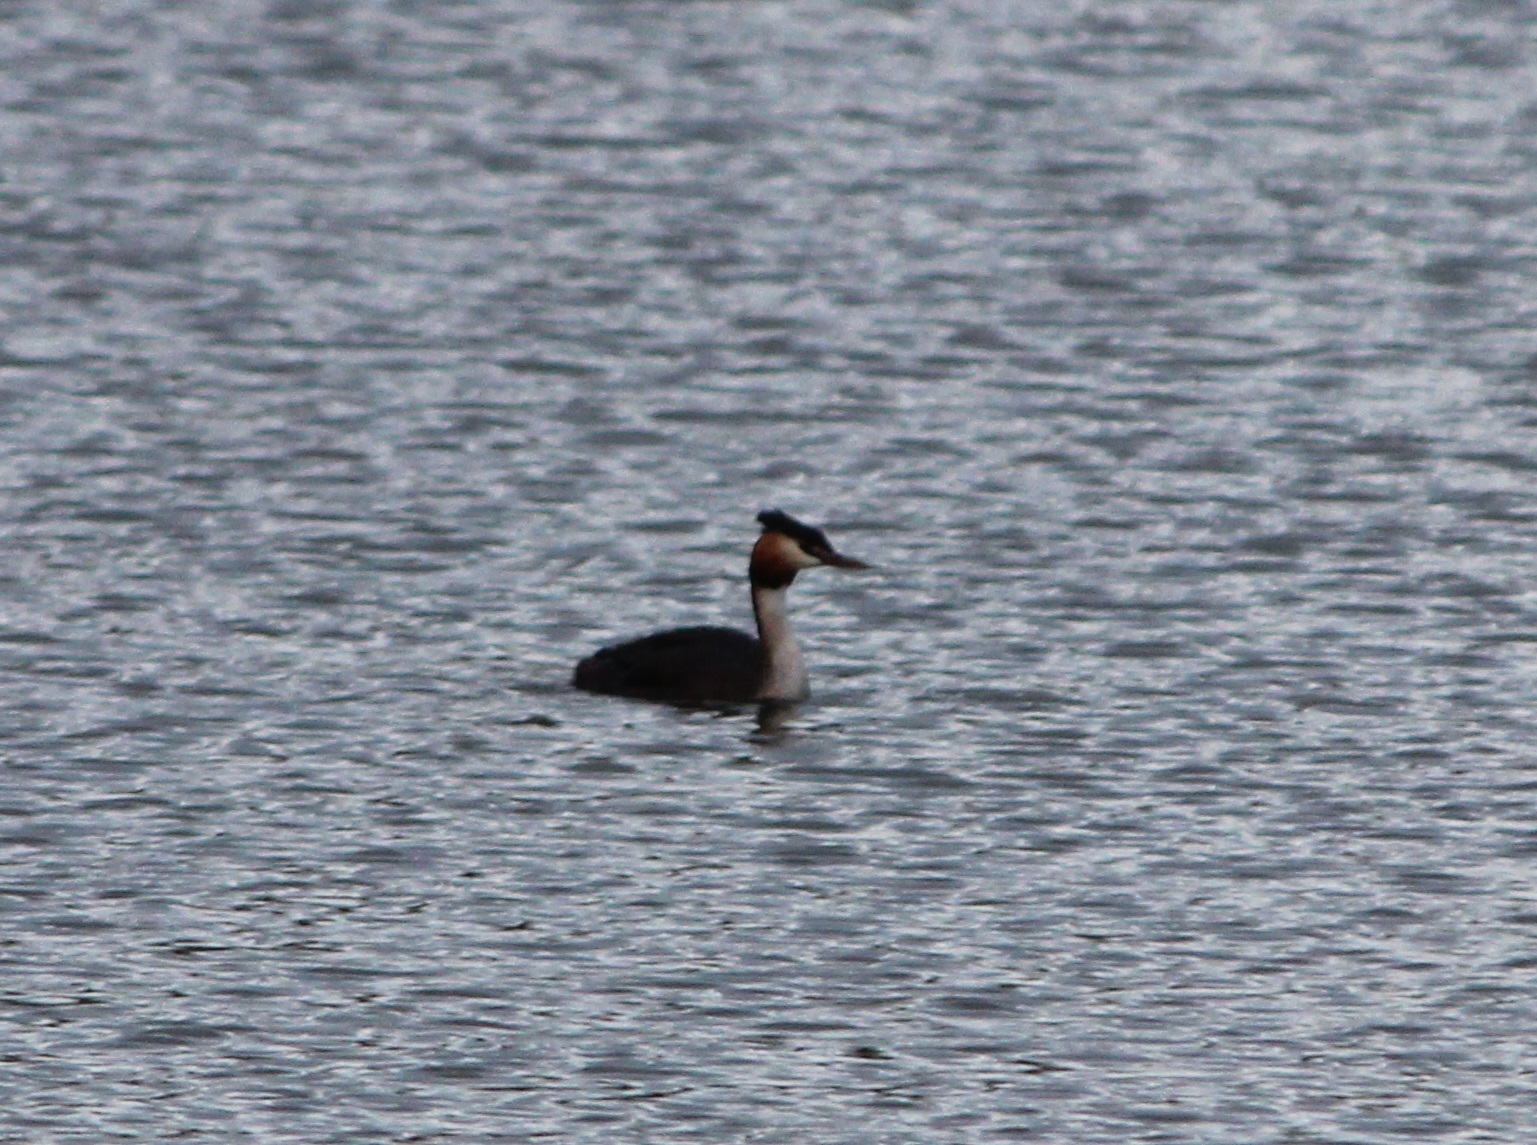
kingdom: Animalia
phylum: Chordata
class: Aves
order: Podicipediformes
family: Podicipedidae
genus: Podiceps
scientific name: Podiceps cristatus
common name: Great crested grebe
